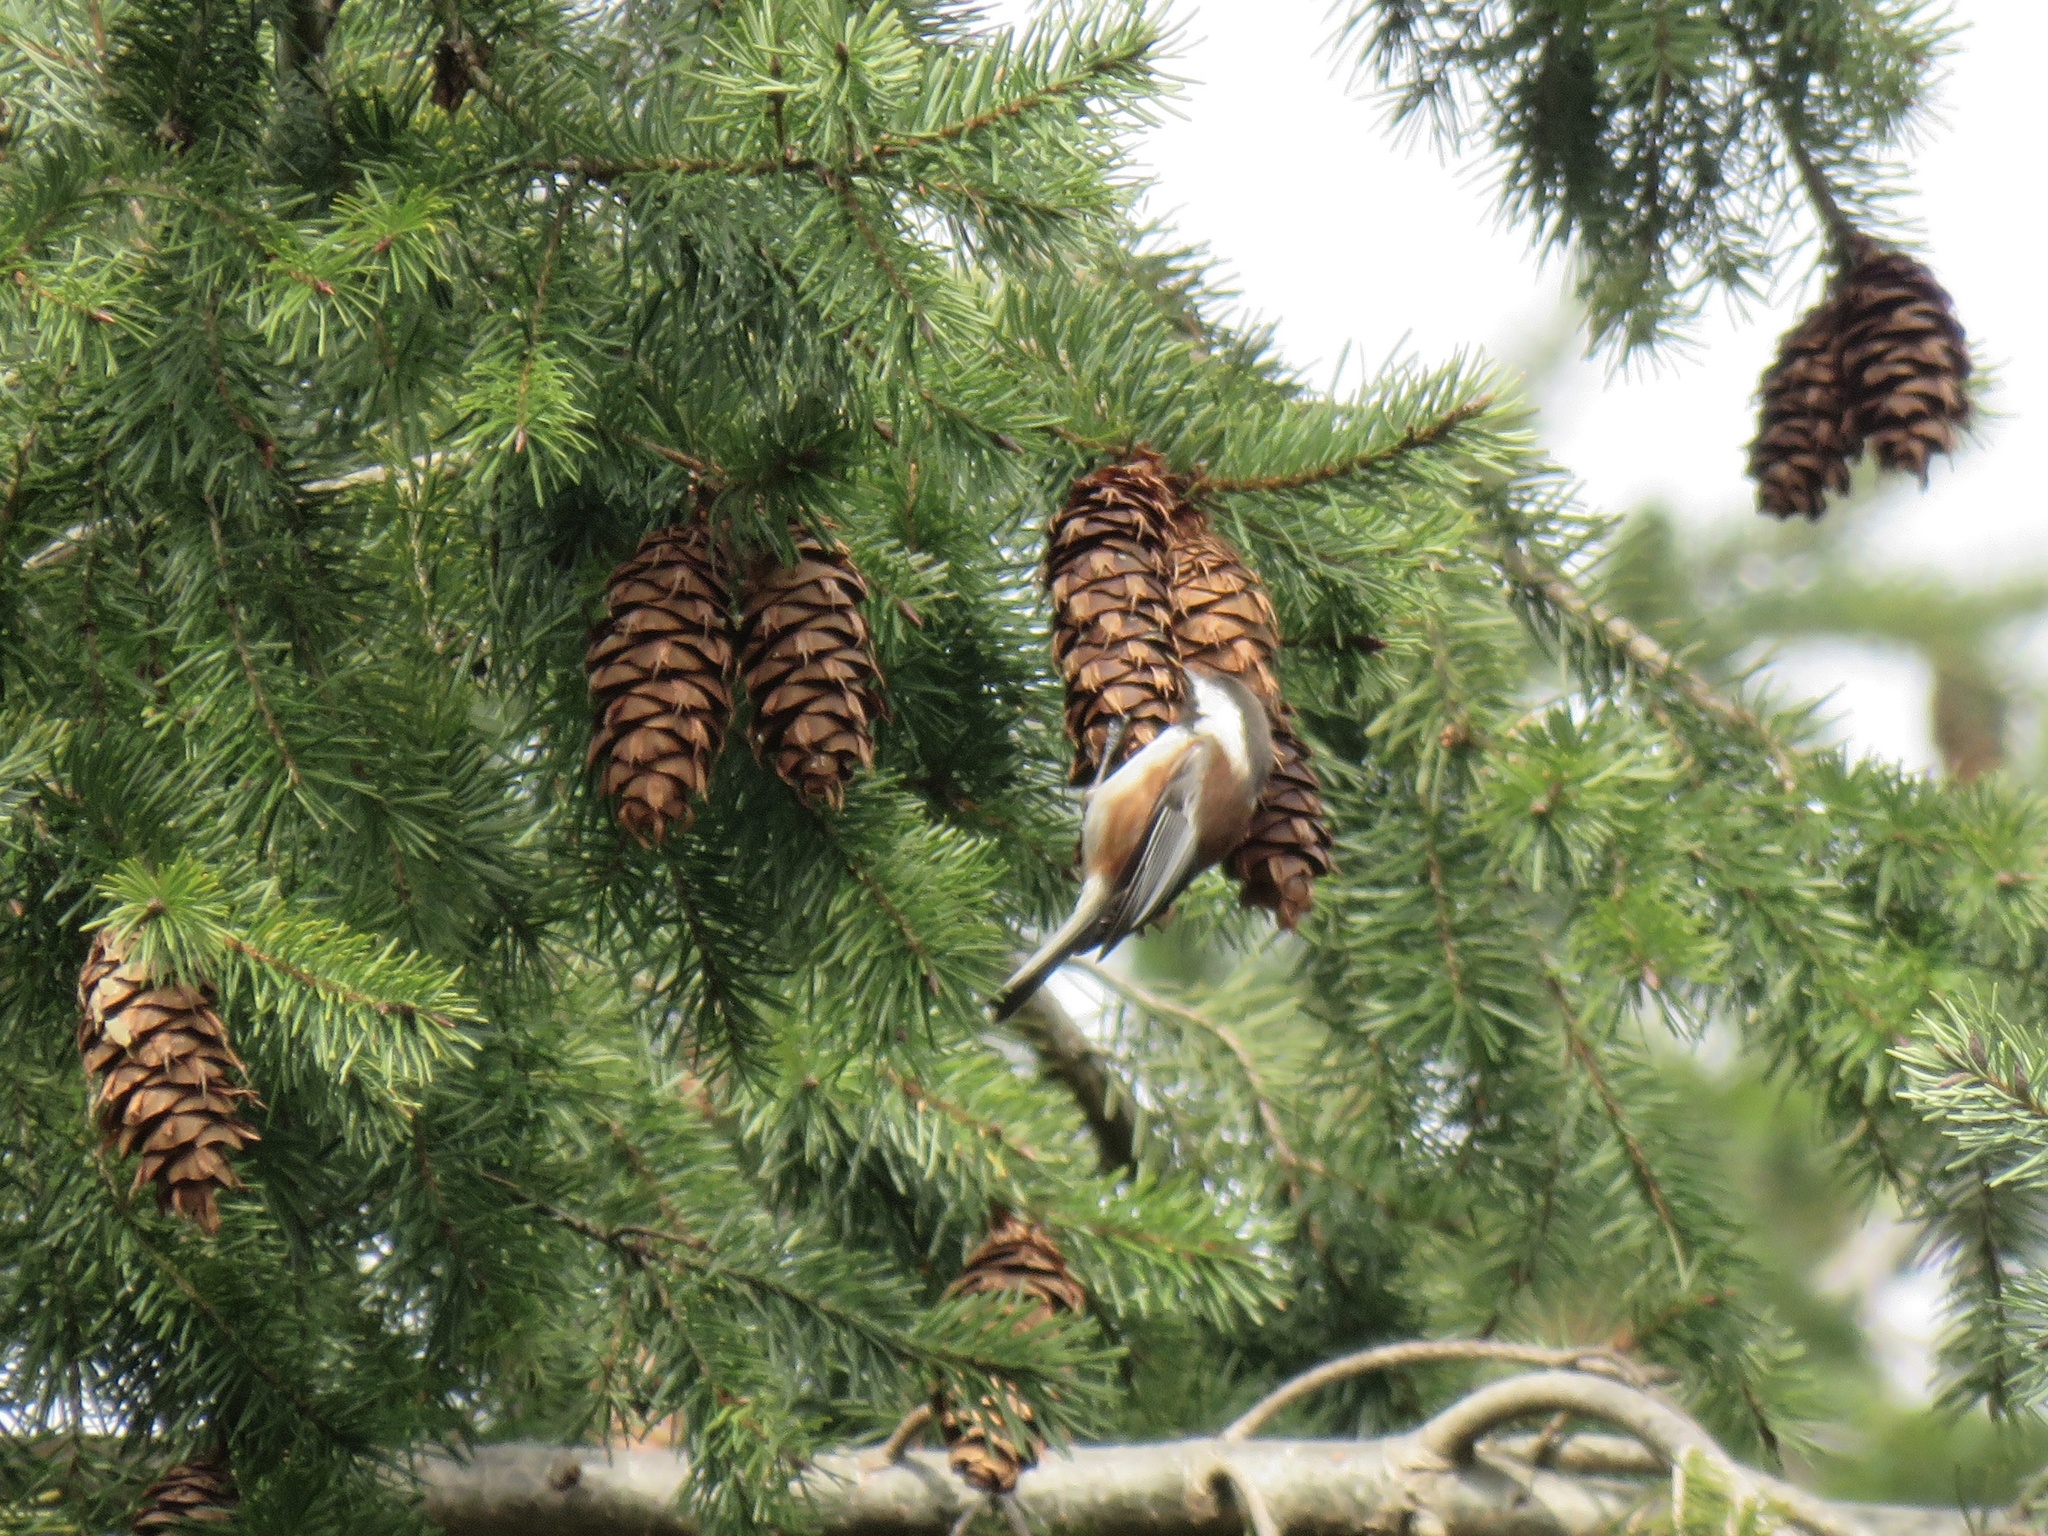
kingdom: Animalia
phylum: Chordata
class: Aves
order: Passeriformes
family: Paridae
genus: Poecile
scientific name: Poecile rufescens
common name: Chestnut-backed chickadee
